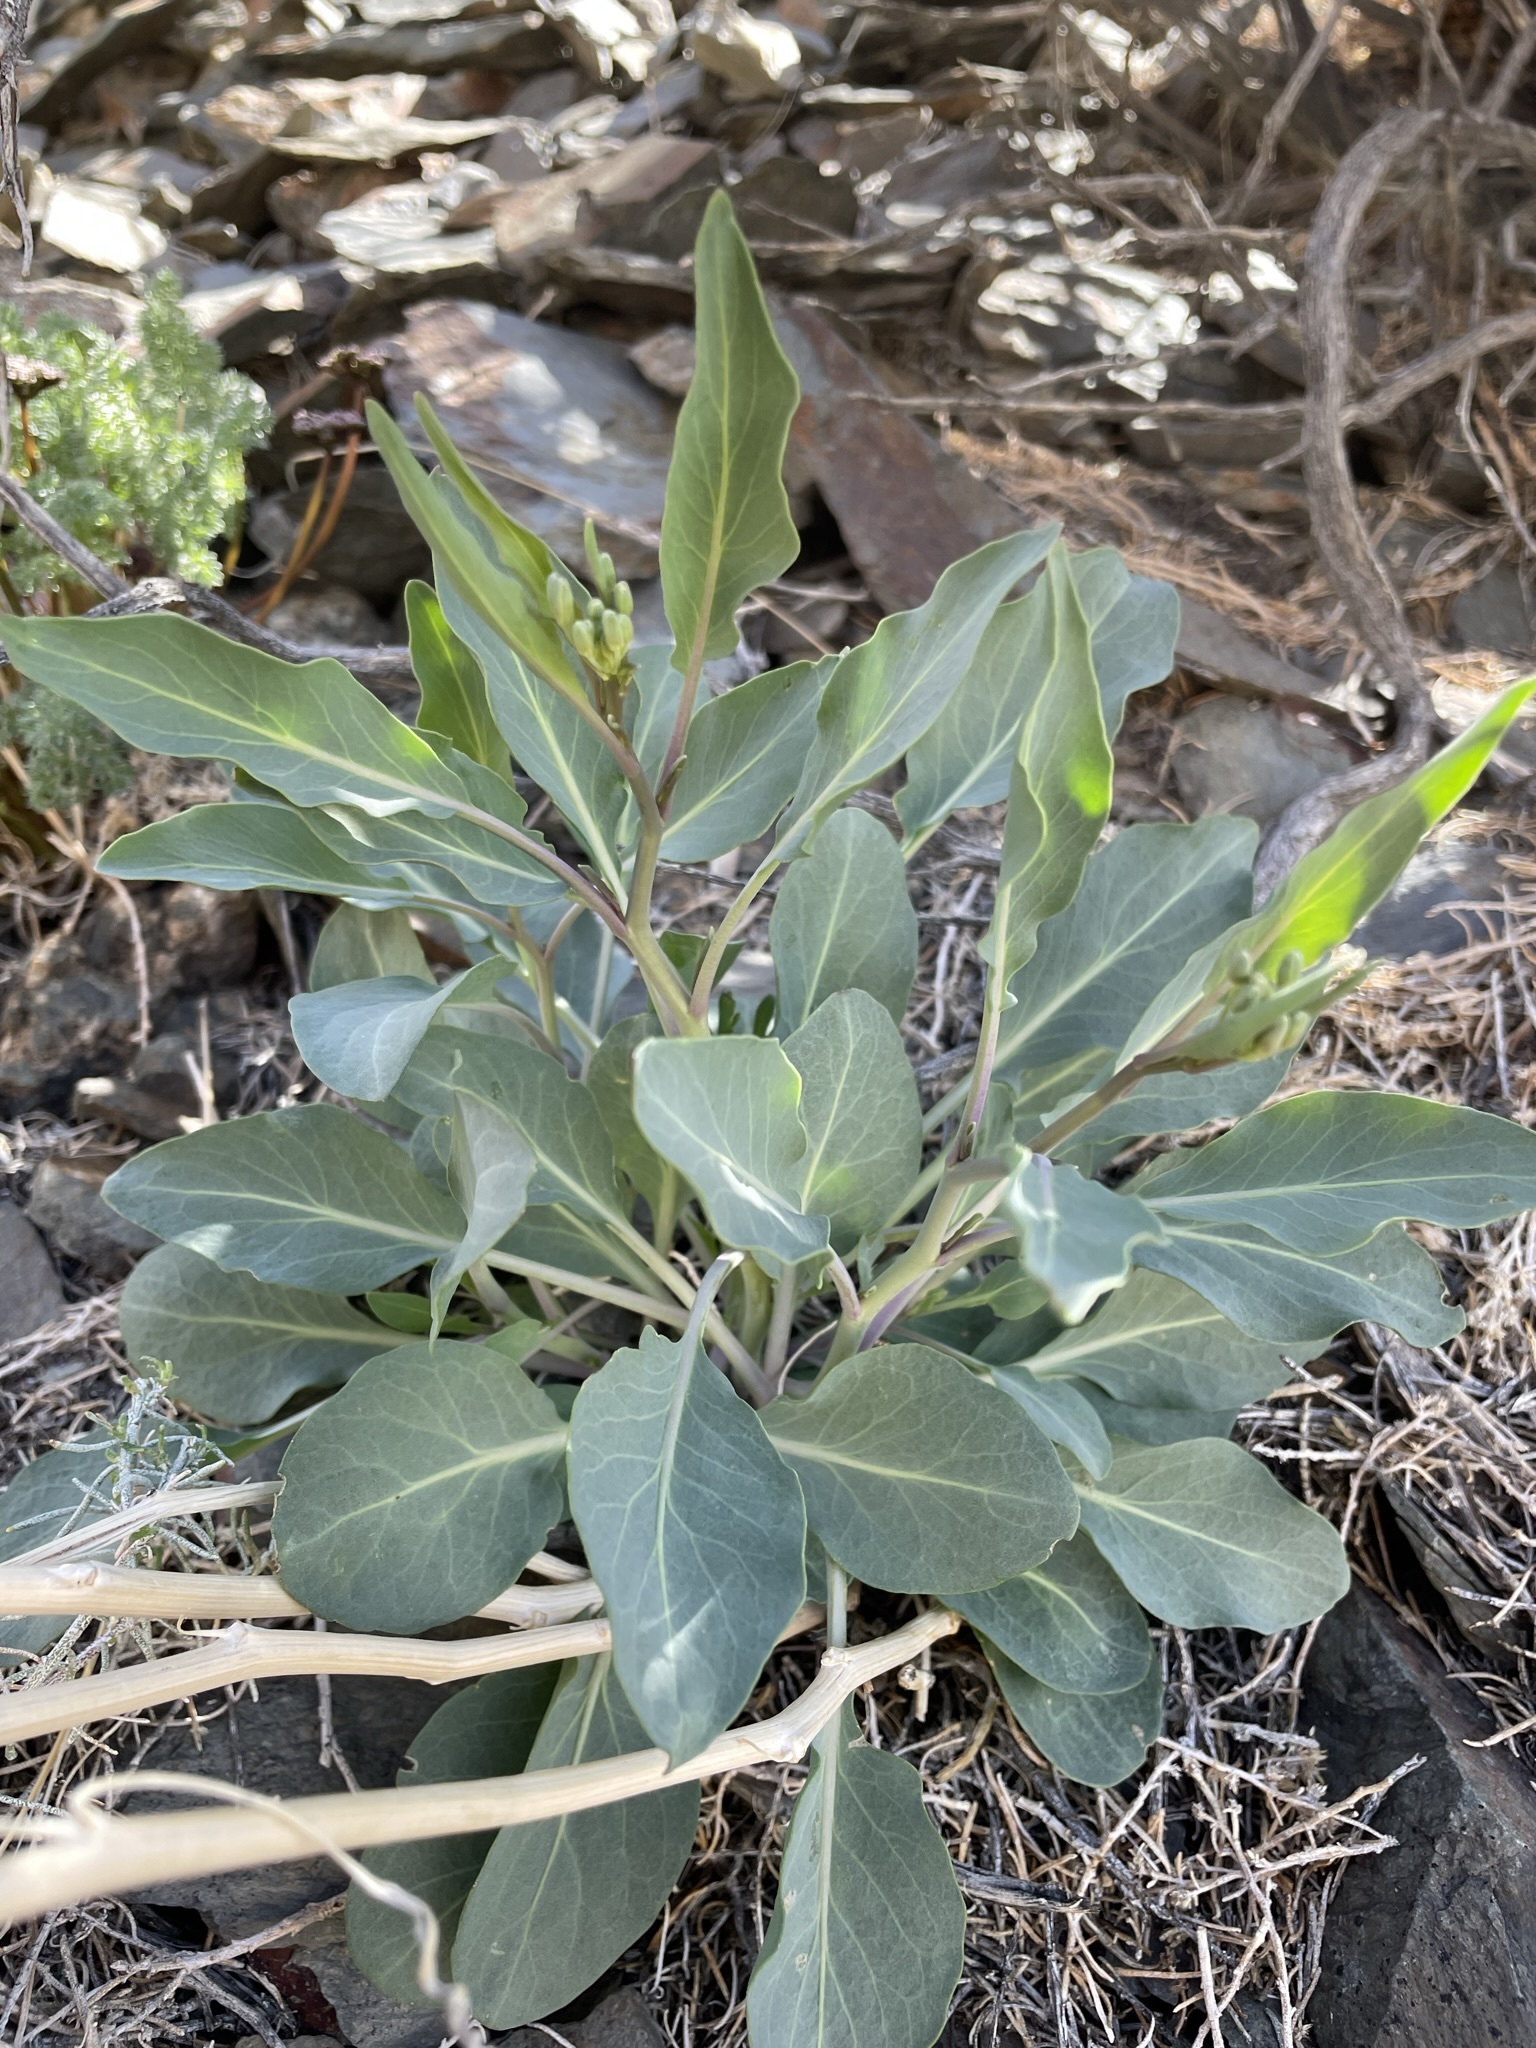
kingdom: Plantae
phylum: Tracheophyta
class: Magnoliopsida
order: Brassicales
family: Brassicaceae
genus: Streptanthus
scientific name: Streptanthus glaucus
